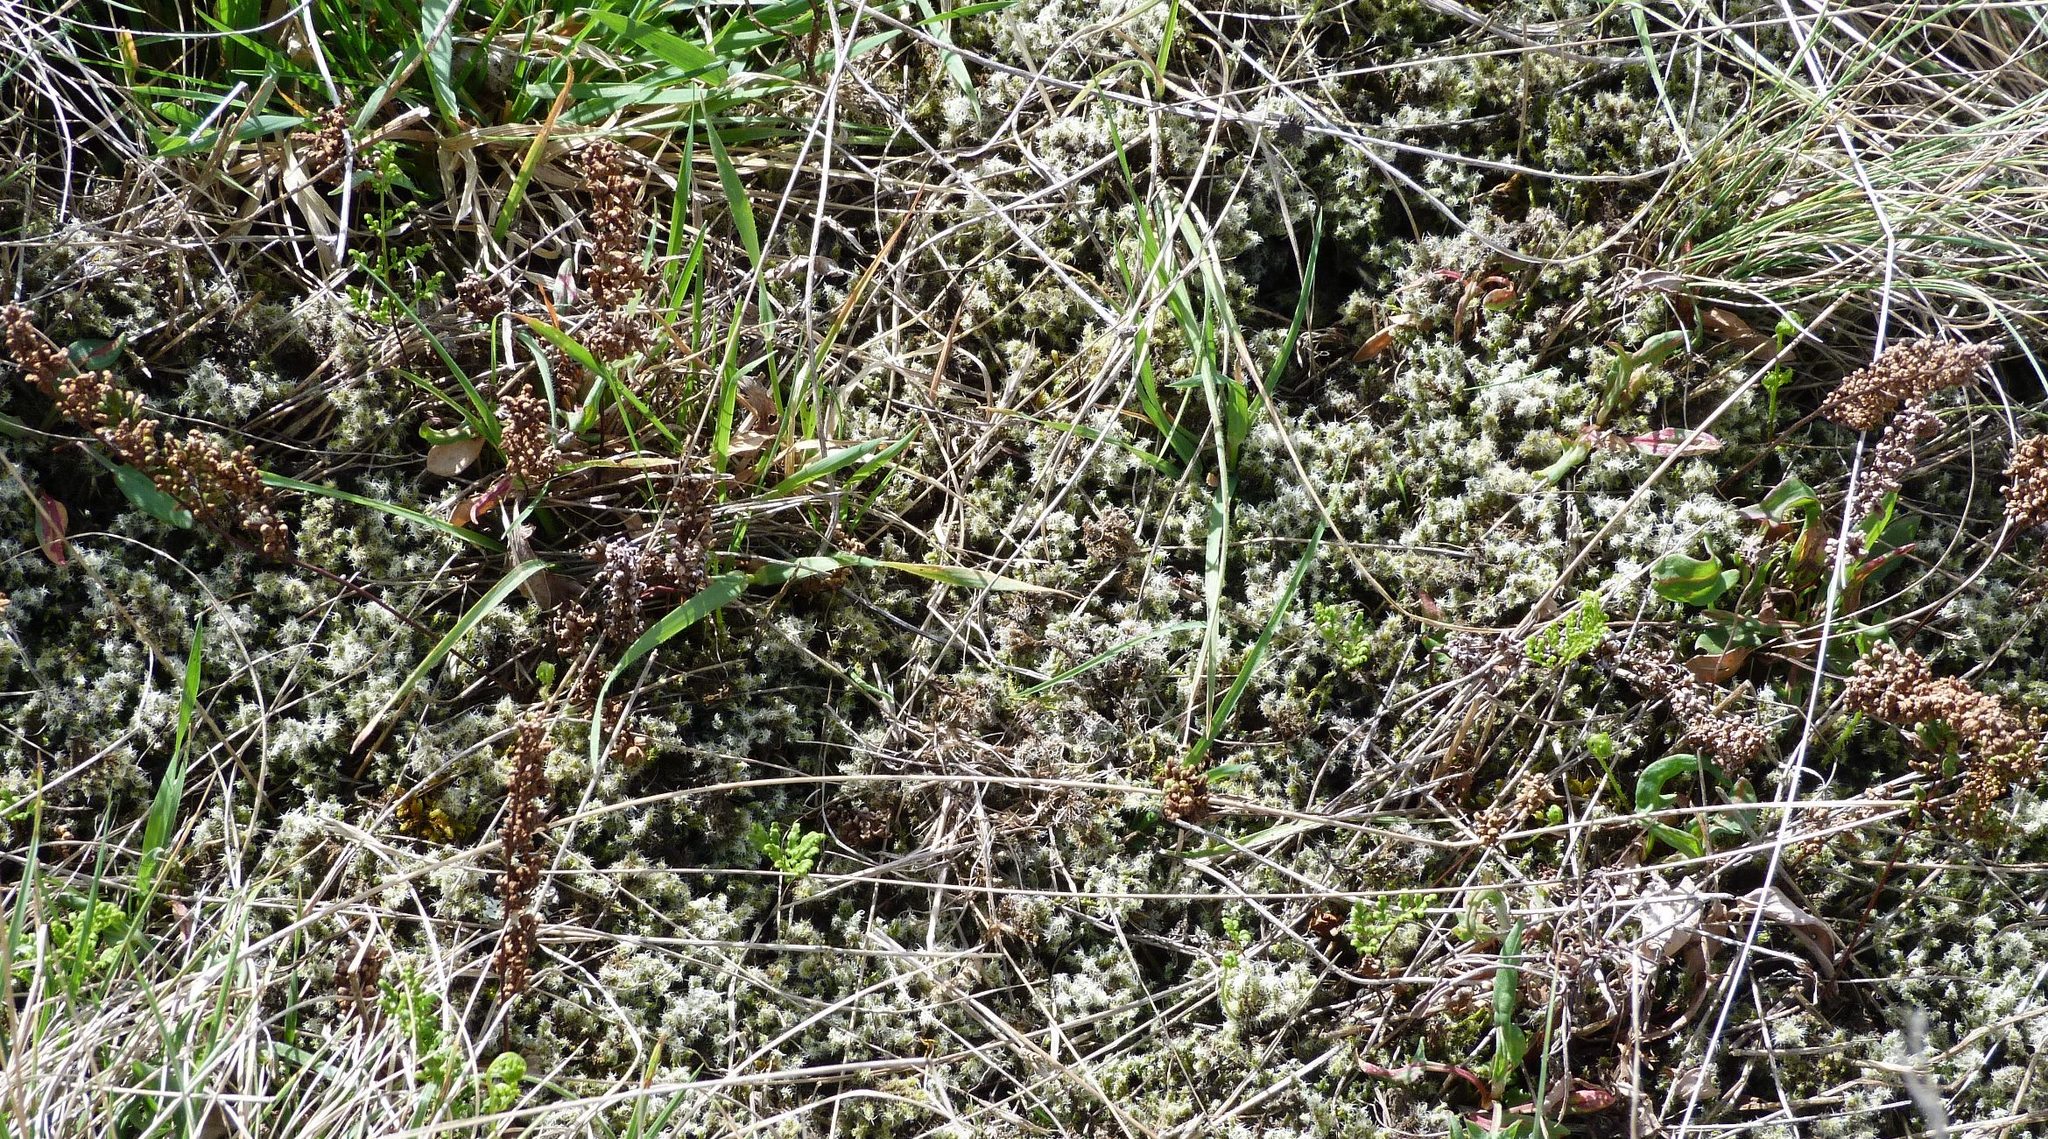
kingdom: Plantae
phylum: Tracheophyta
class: Polypodiopsida
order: Polypodiales
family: Pteridaceae
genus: Cheilanthes
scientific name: Cheilanthes sieberi
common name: Mulga fern
